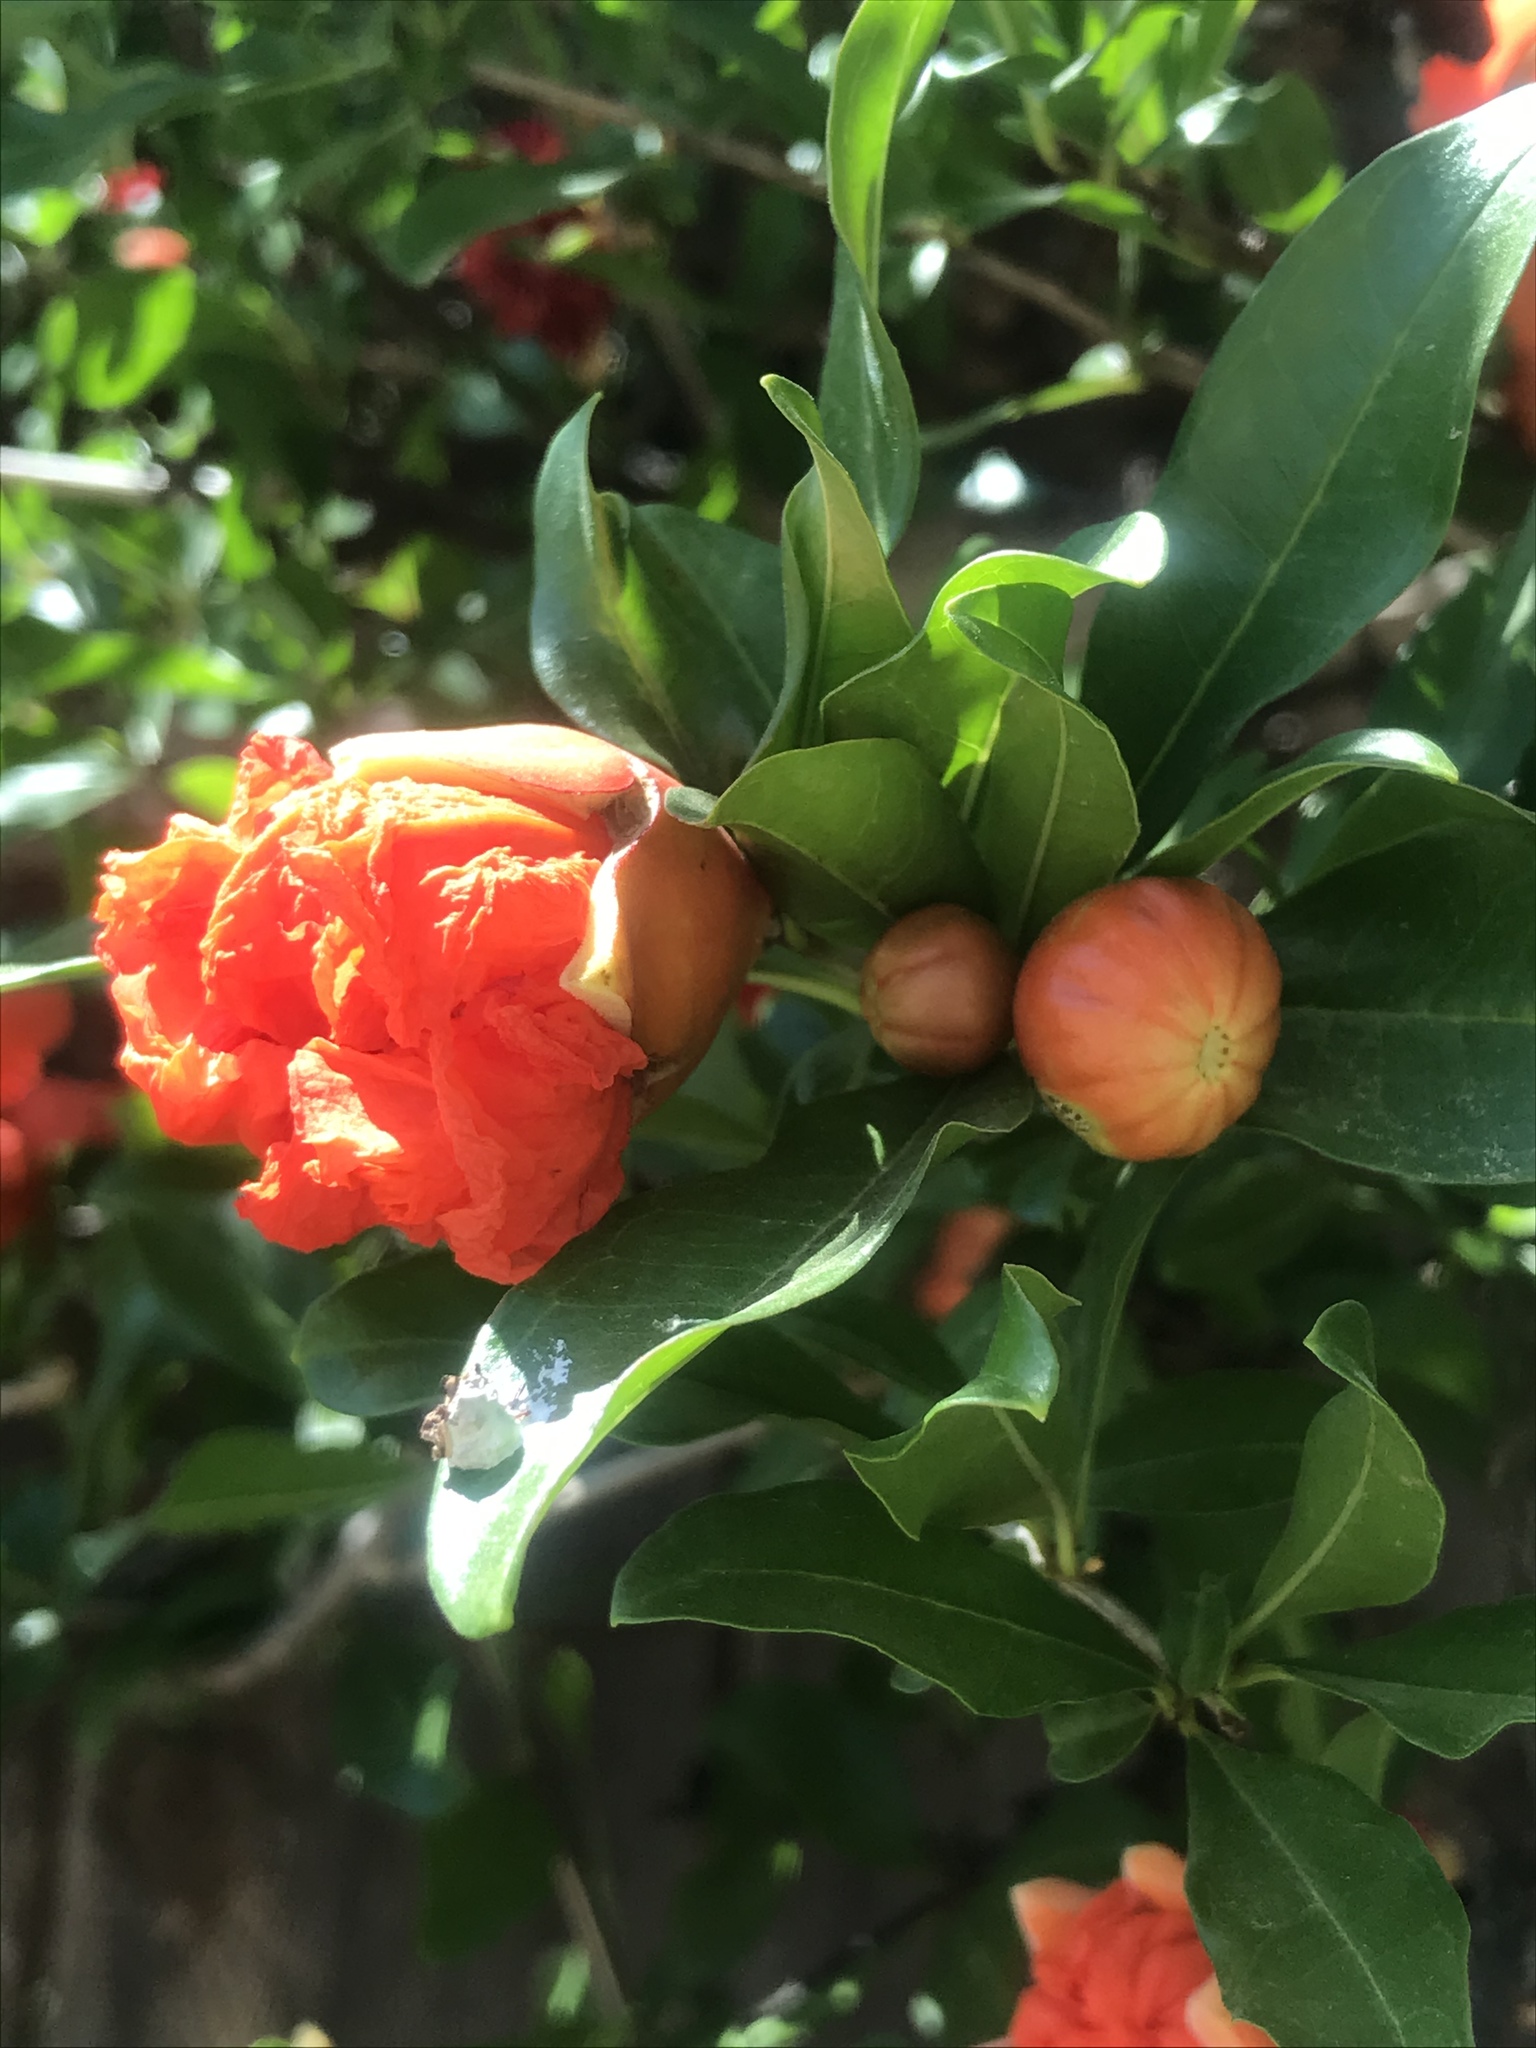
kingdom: Plantae
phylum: Tracheophyta
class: Magnoliopsida
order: Myrtales
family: Lythraceae
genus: Punica
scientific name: Punica granatum
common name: Pomegranate
